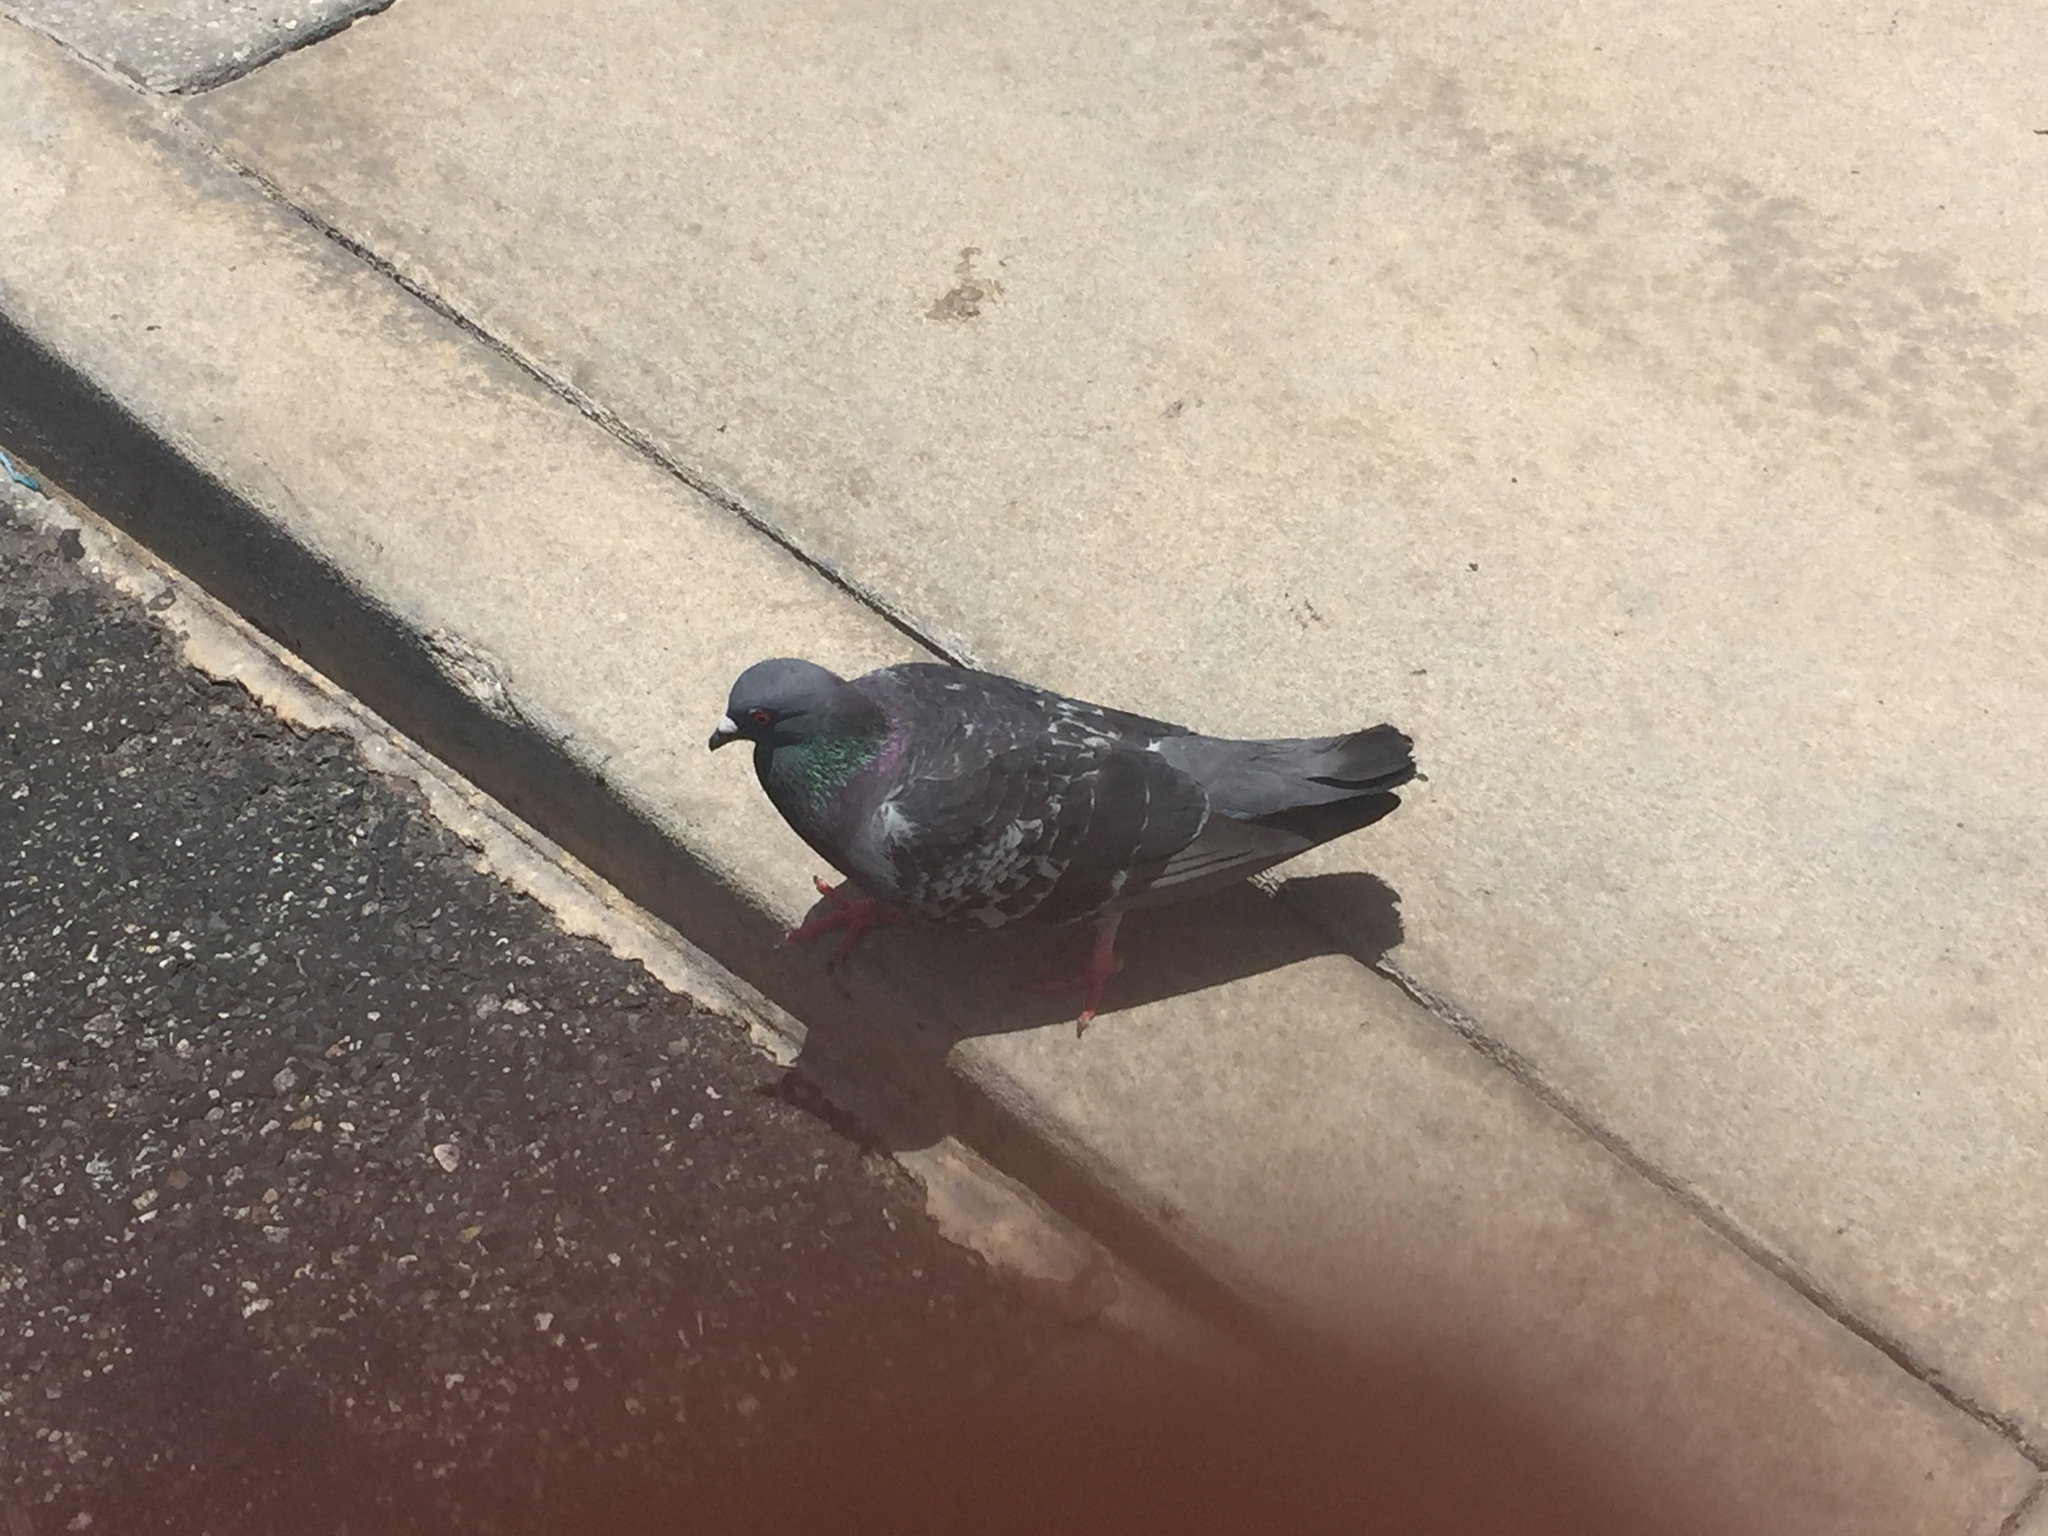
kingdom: Animalia
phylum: Chordata
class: Aves
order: Columbiformes
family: Columbidae
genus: Columba
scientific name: Columba livia
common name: Rock pigeon
